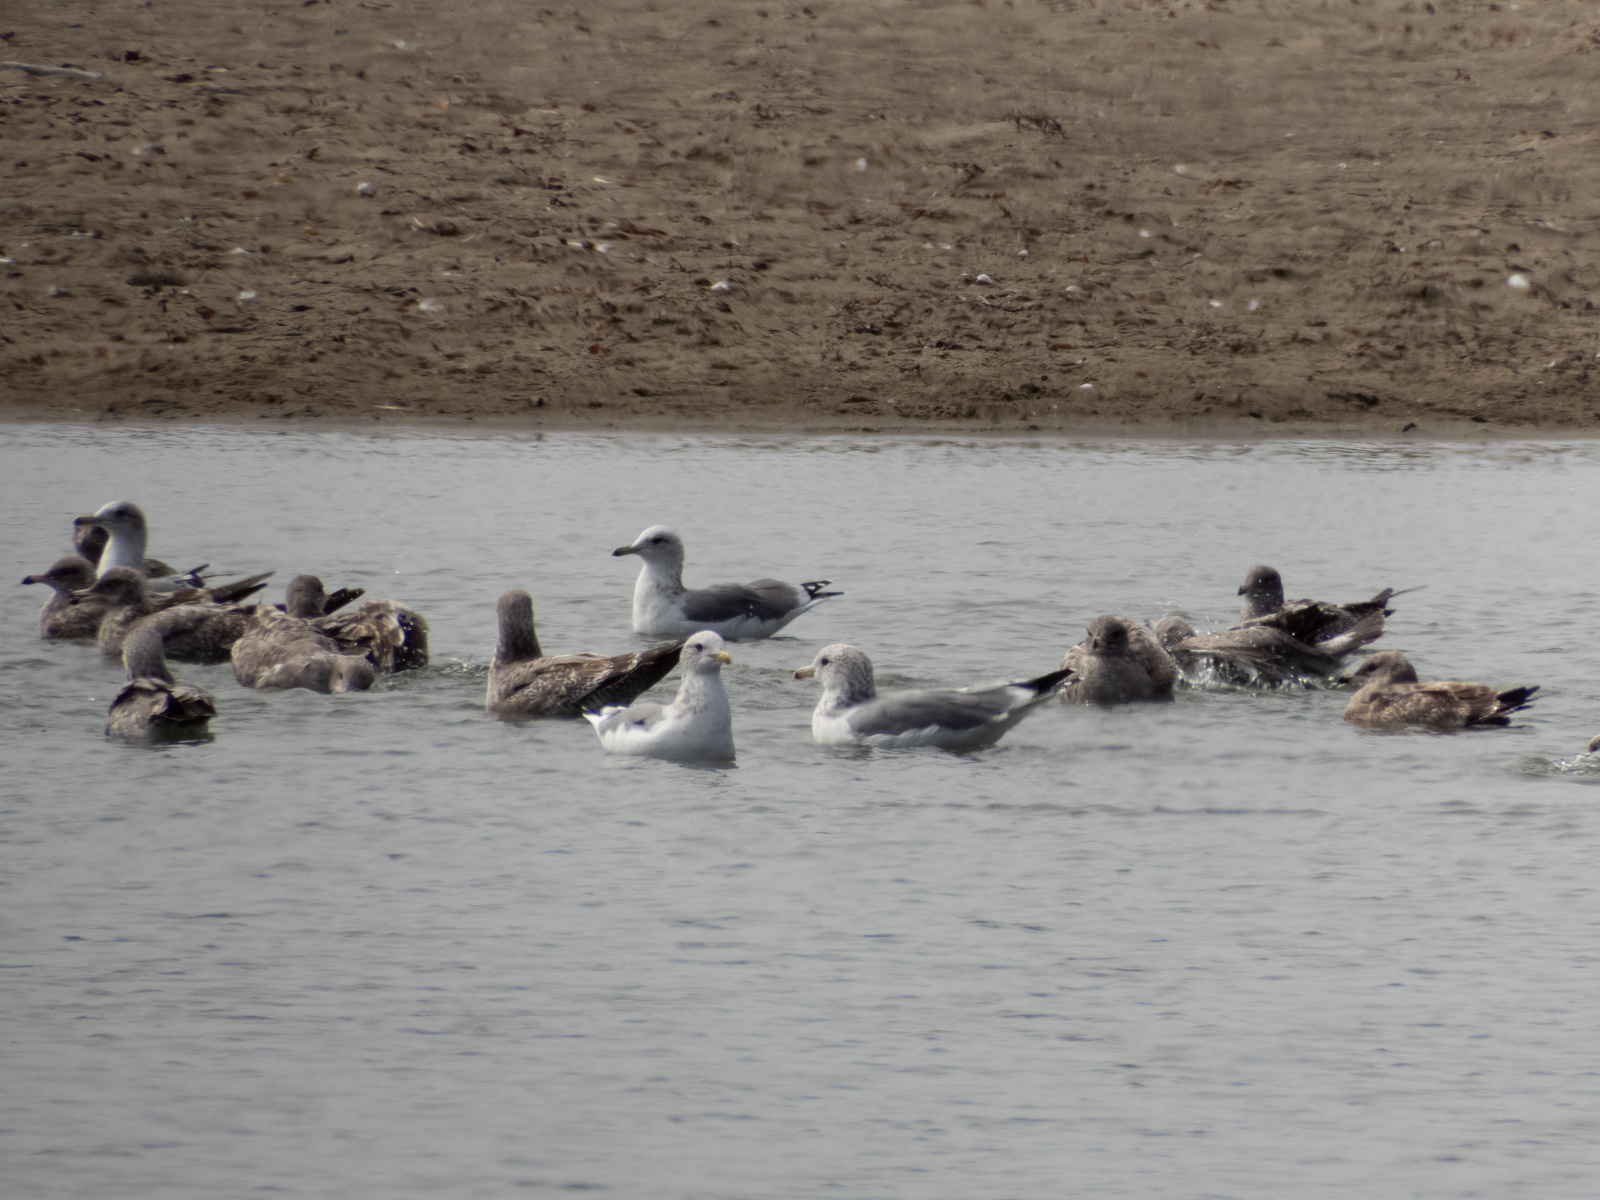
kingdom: Animalia
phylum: Chordata
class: Aves
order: Charadriiformes
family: Laridae
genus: Larus
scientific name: Larus californicus
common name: California gull
